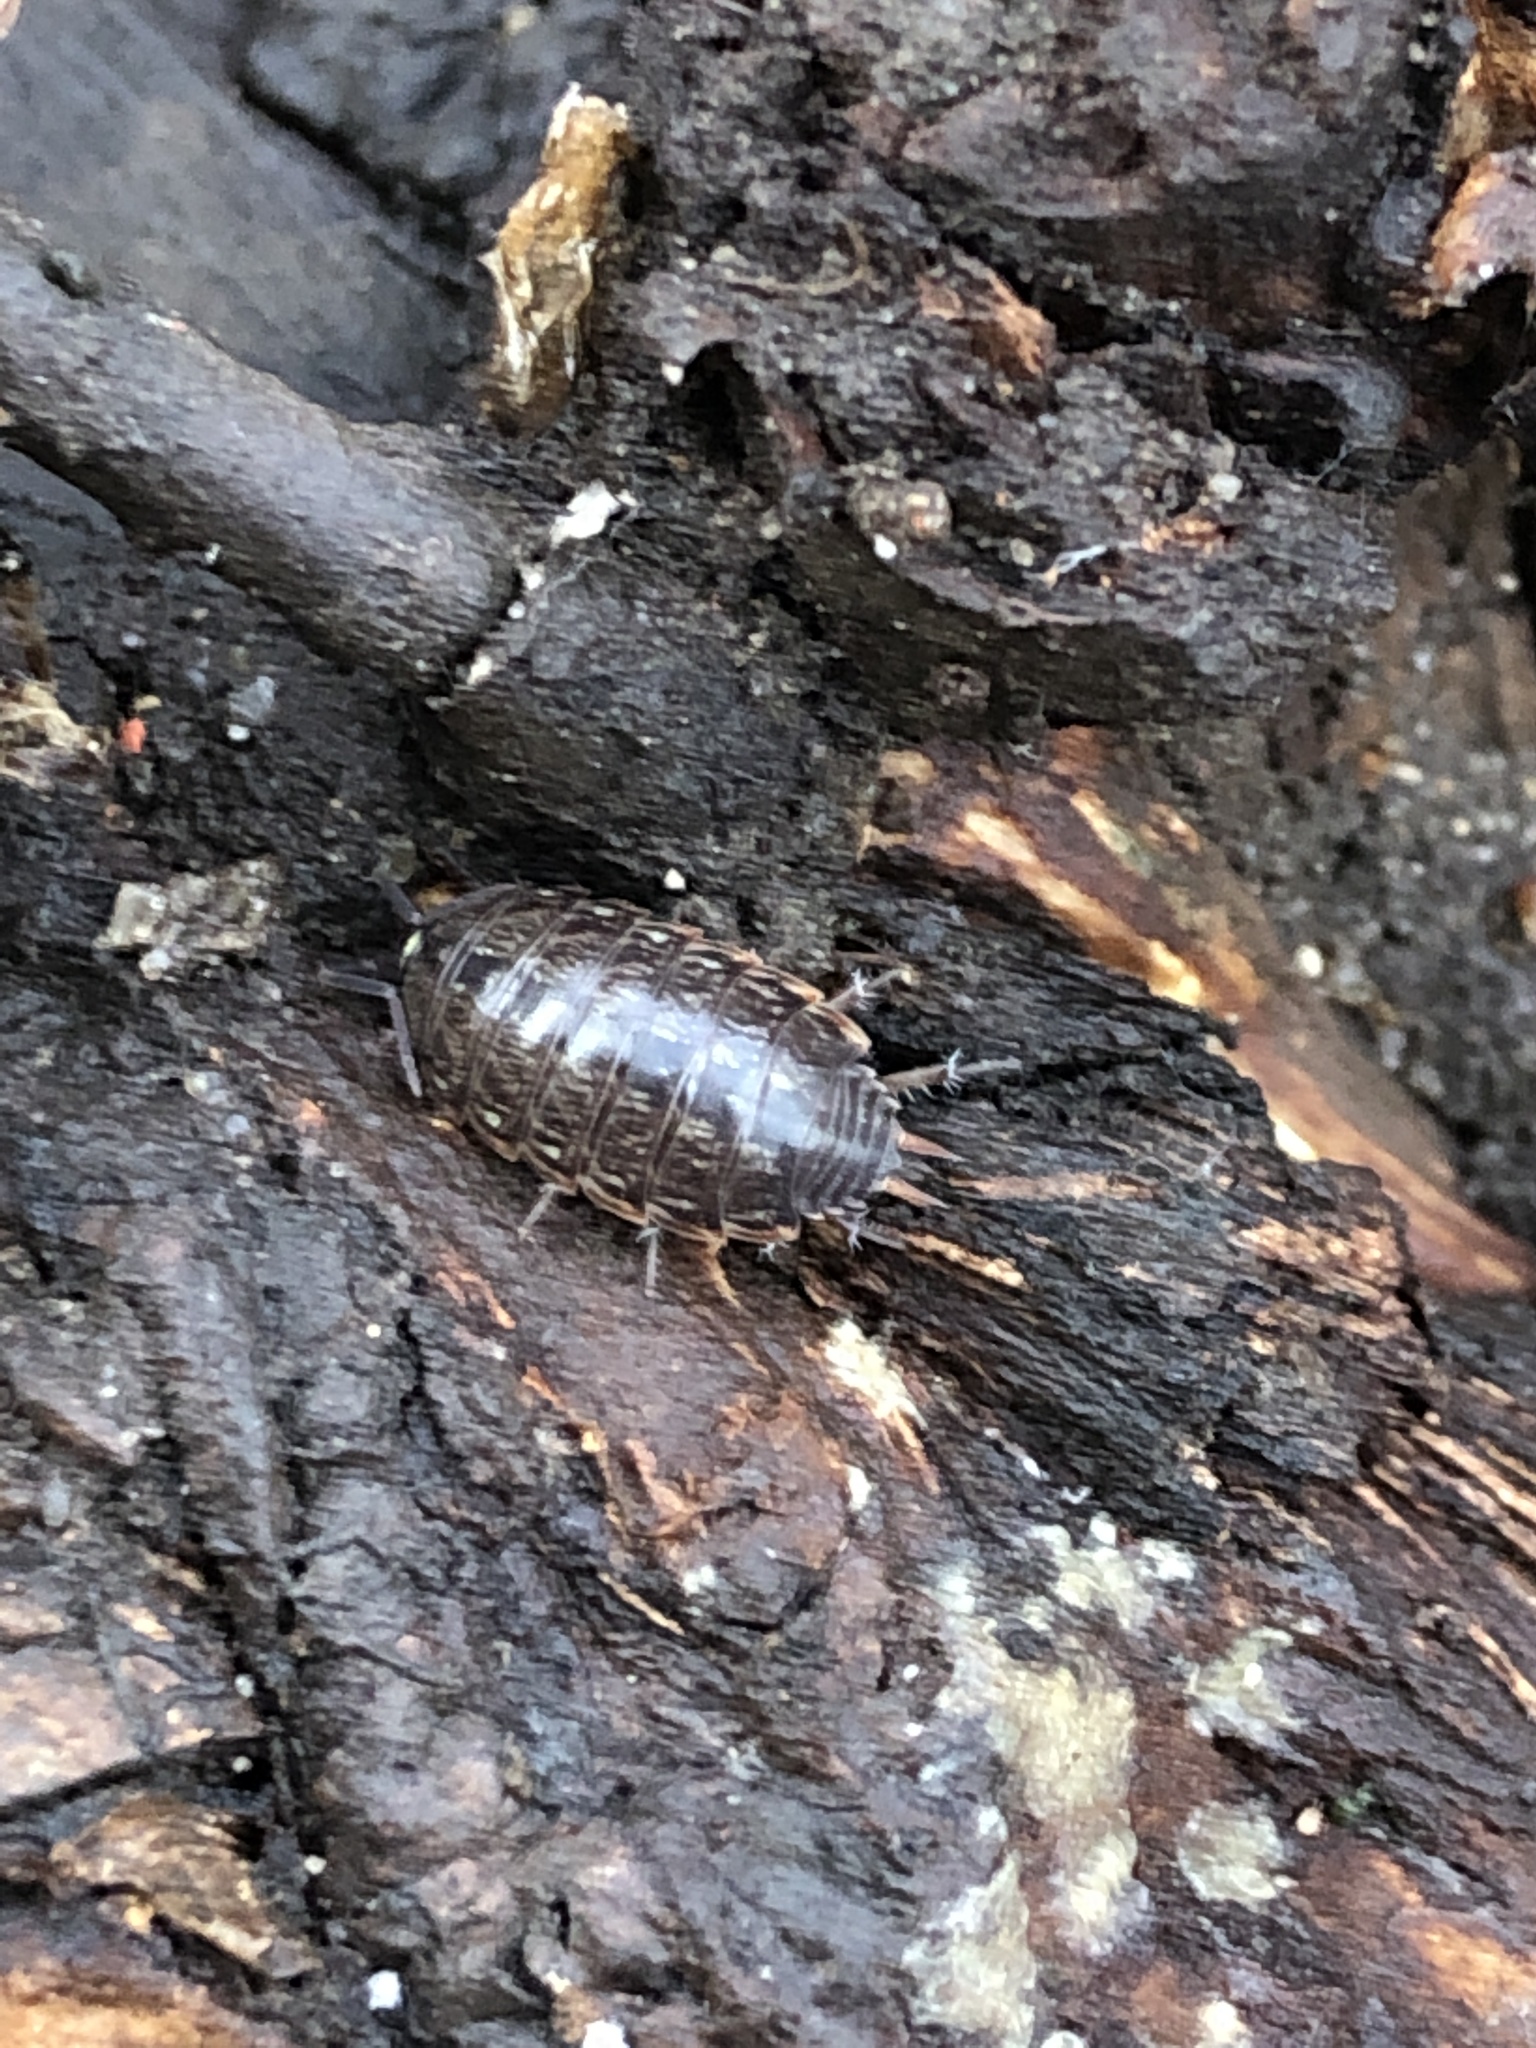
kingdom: Animalia
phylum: Arthropoda
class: Malacostraca
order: Isopoda
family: Philosciidae
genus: Philoscia
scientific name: Philoscia muscorum
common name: Common striped woodlouse
